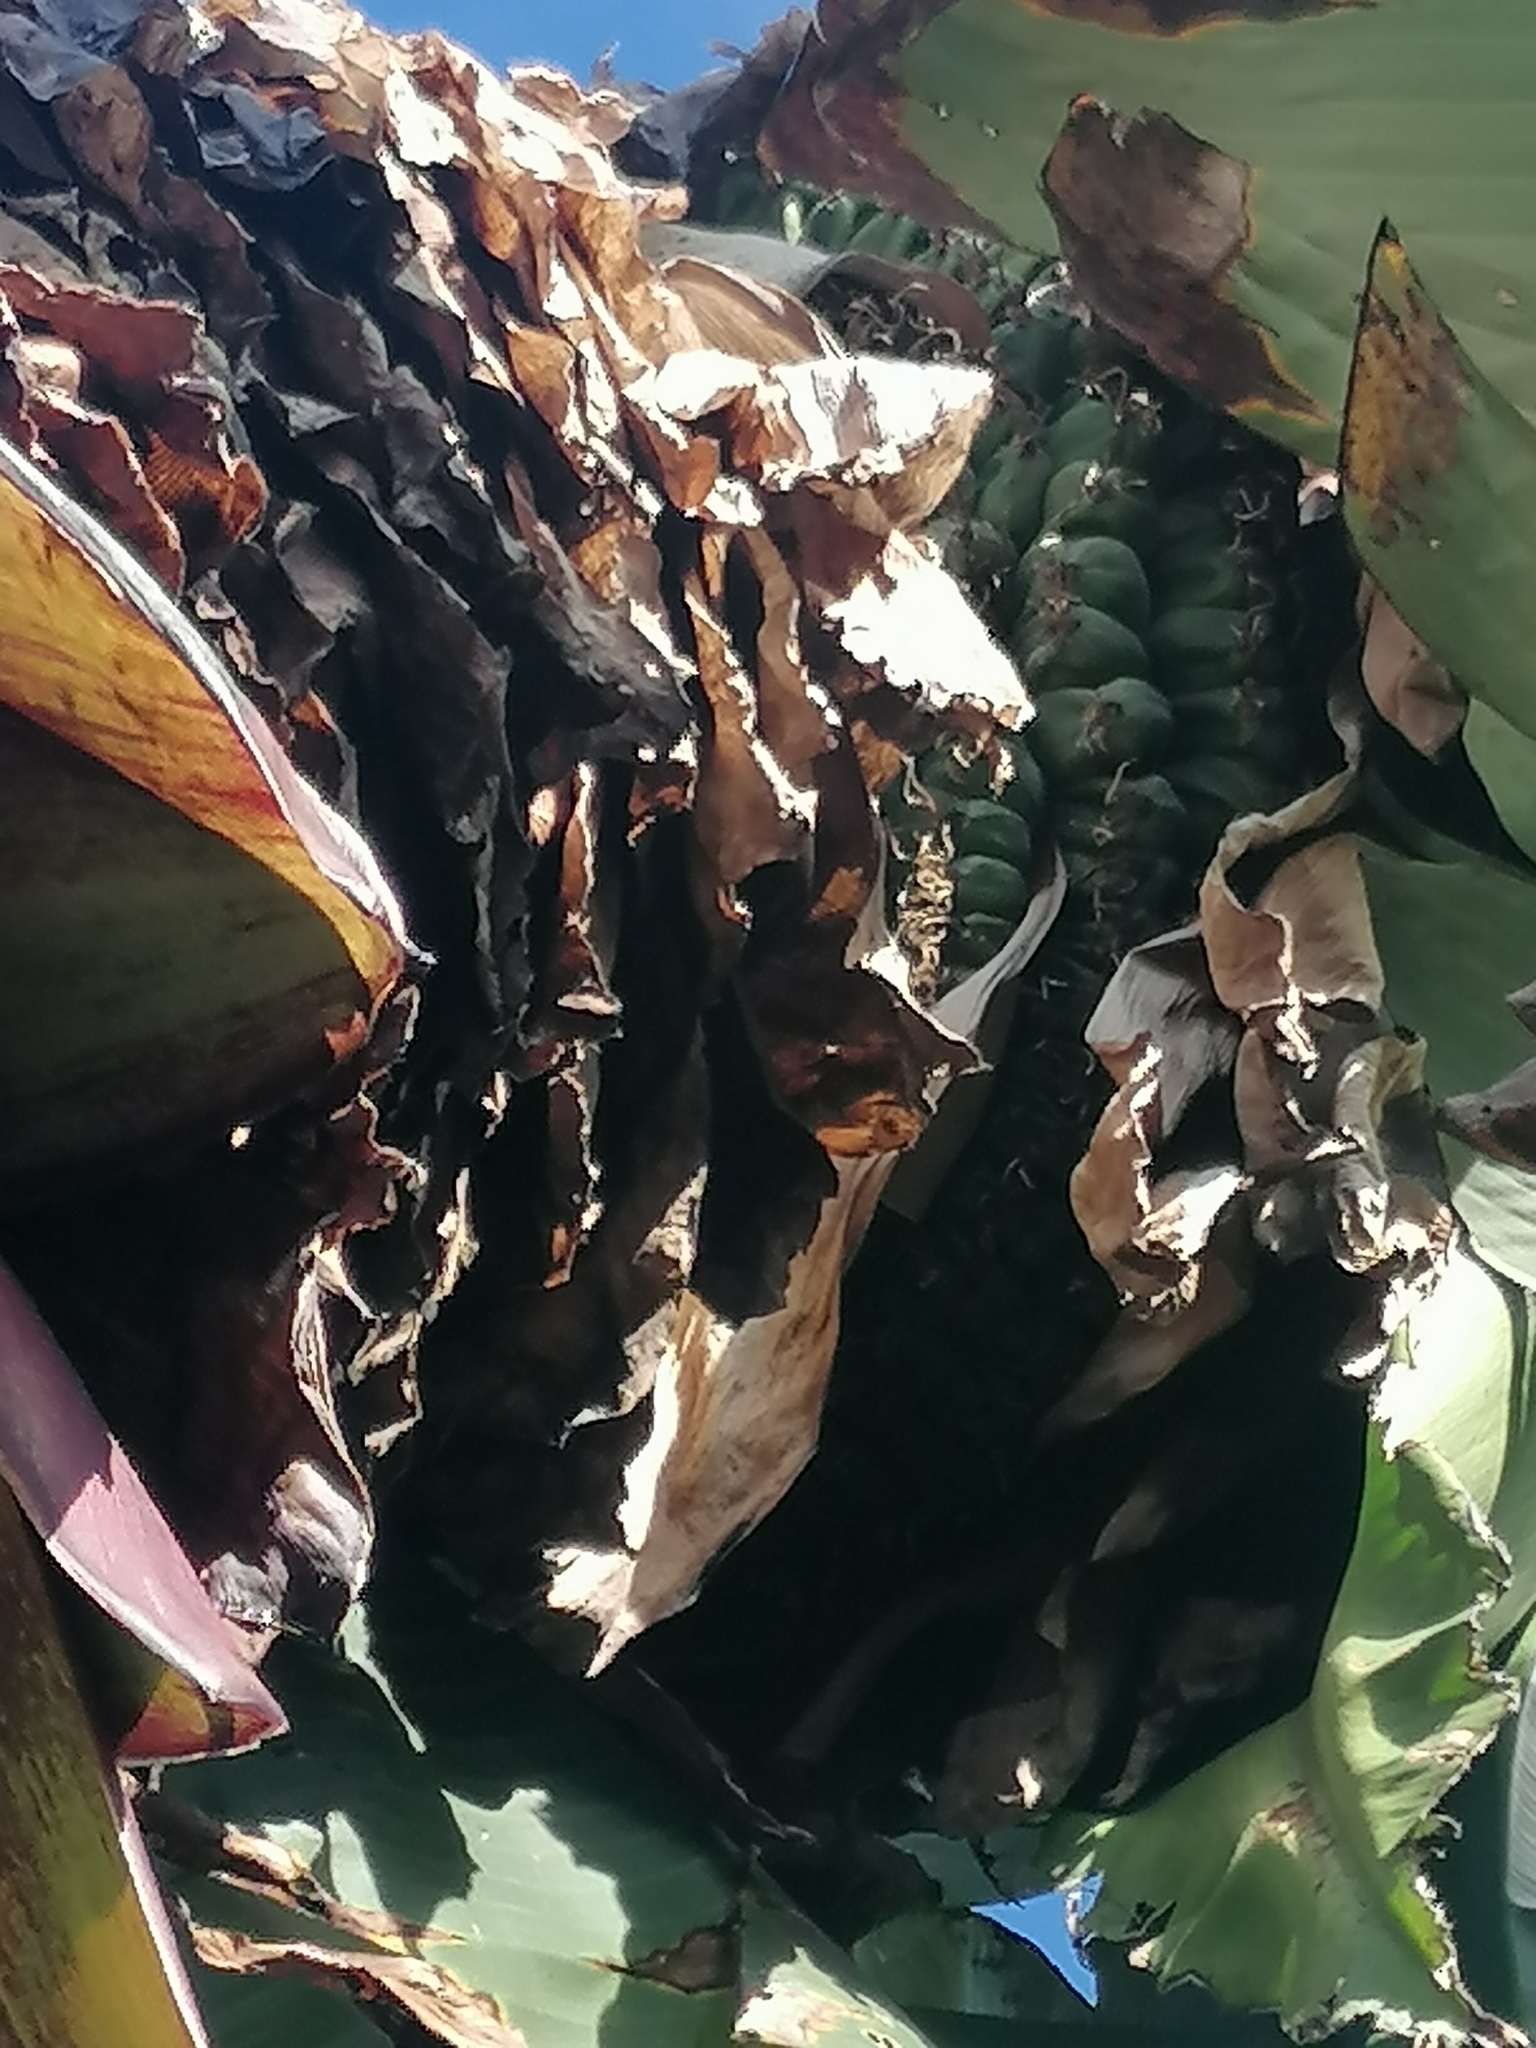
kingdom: Plantae
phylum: Tracheophyta
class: Liliopsida
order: Zingiberales
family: Musaceae
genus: Ensete
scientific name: Ensete ventricosum
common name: Abyssinian banana
